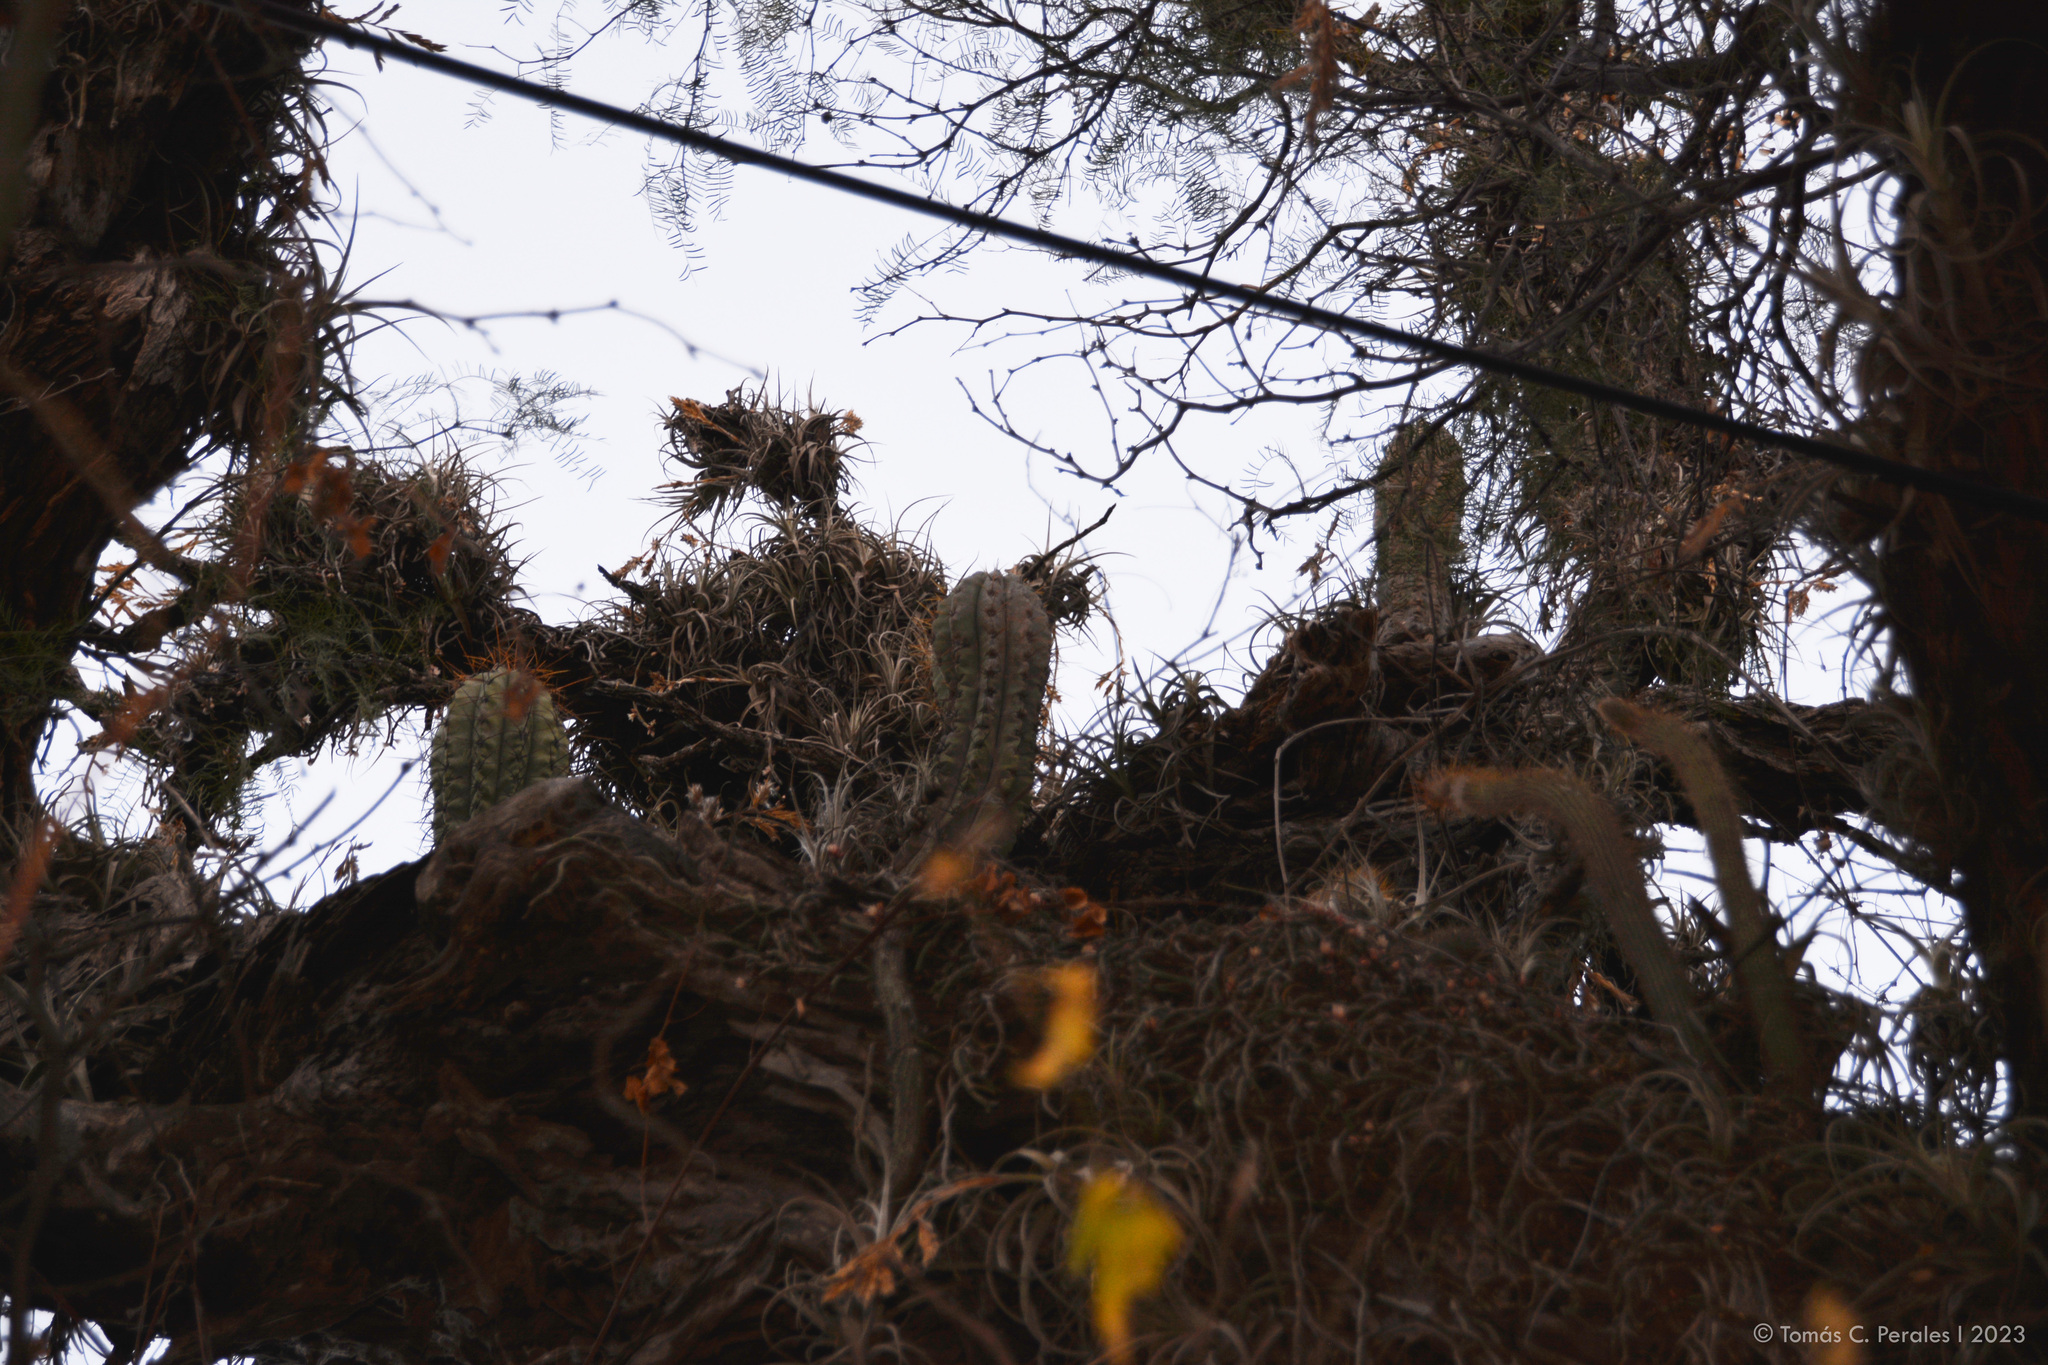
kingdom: Plantae
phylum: Tracheophyta
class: Magnoliopsida
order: Caryophyllales
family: Cactaceae
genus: Leucostele
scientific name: Leucostele terscheckii
